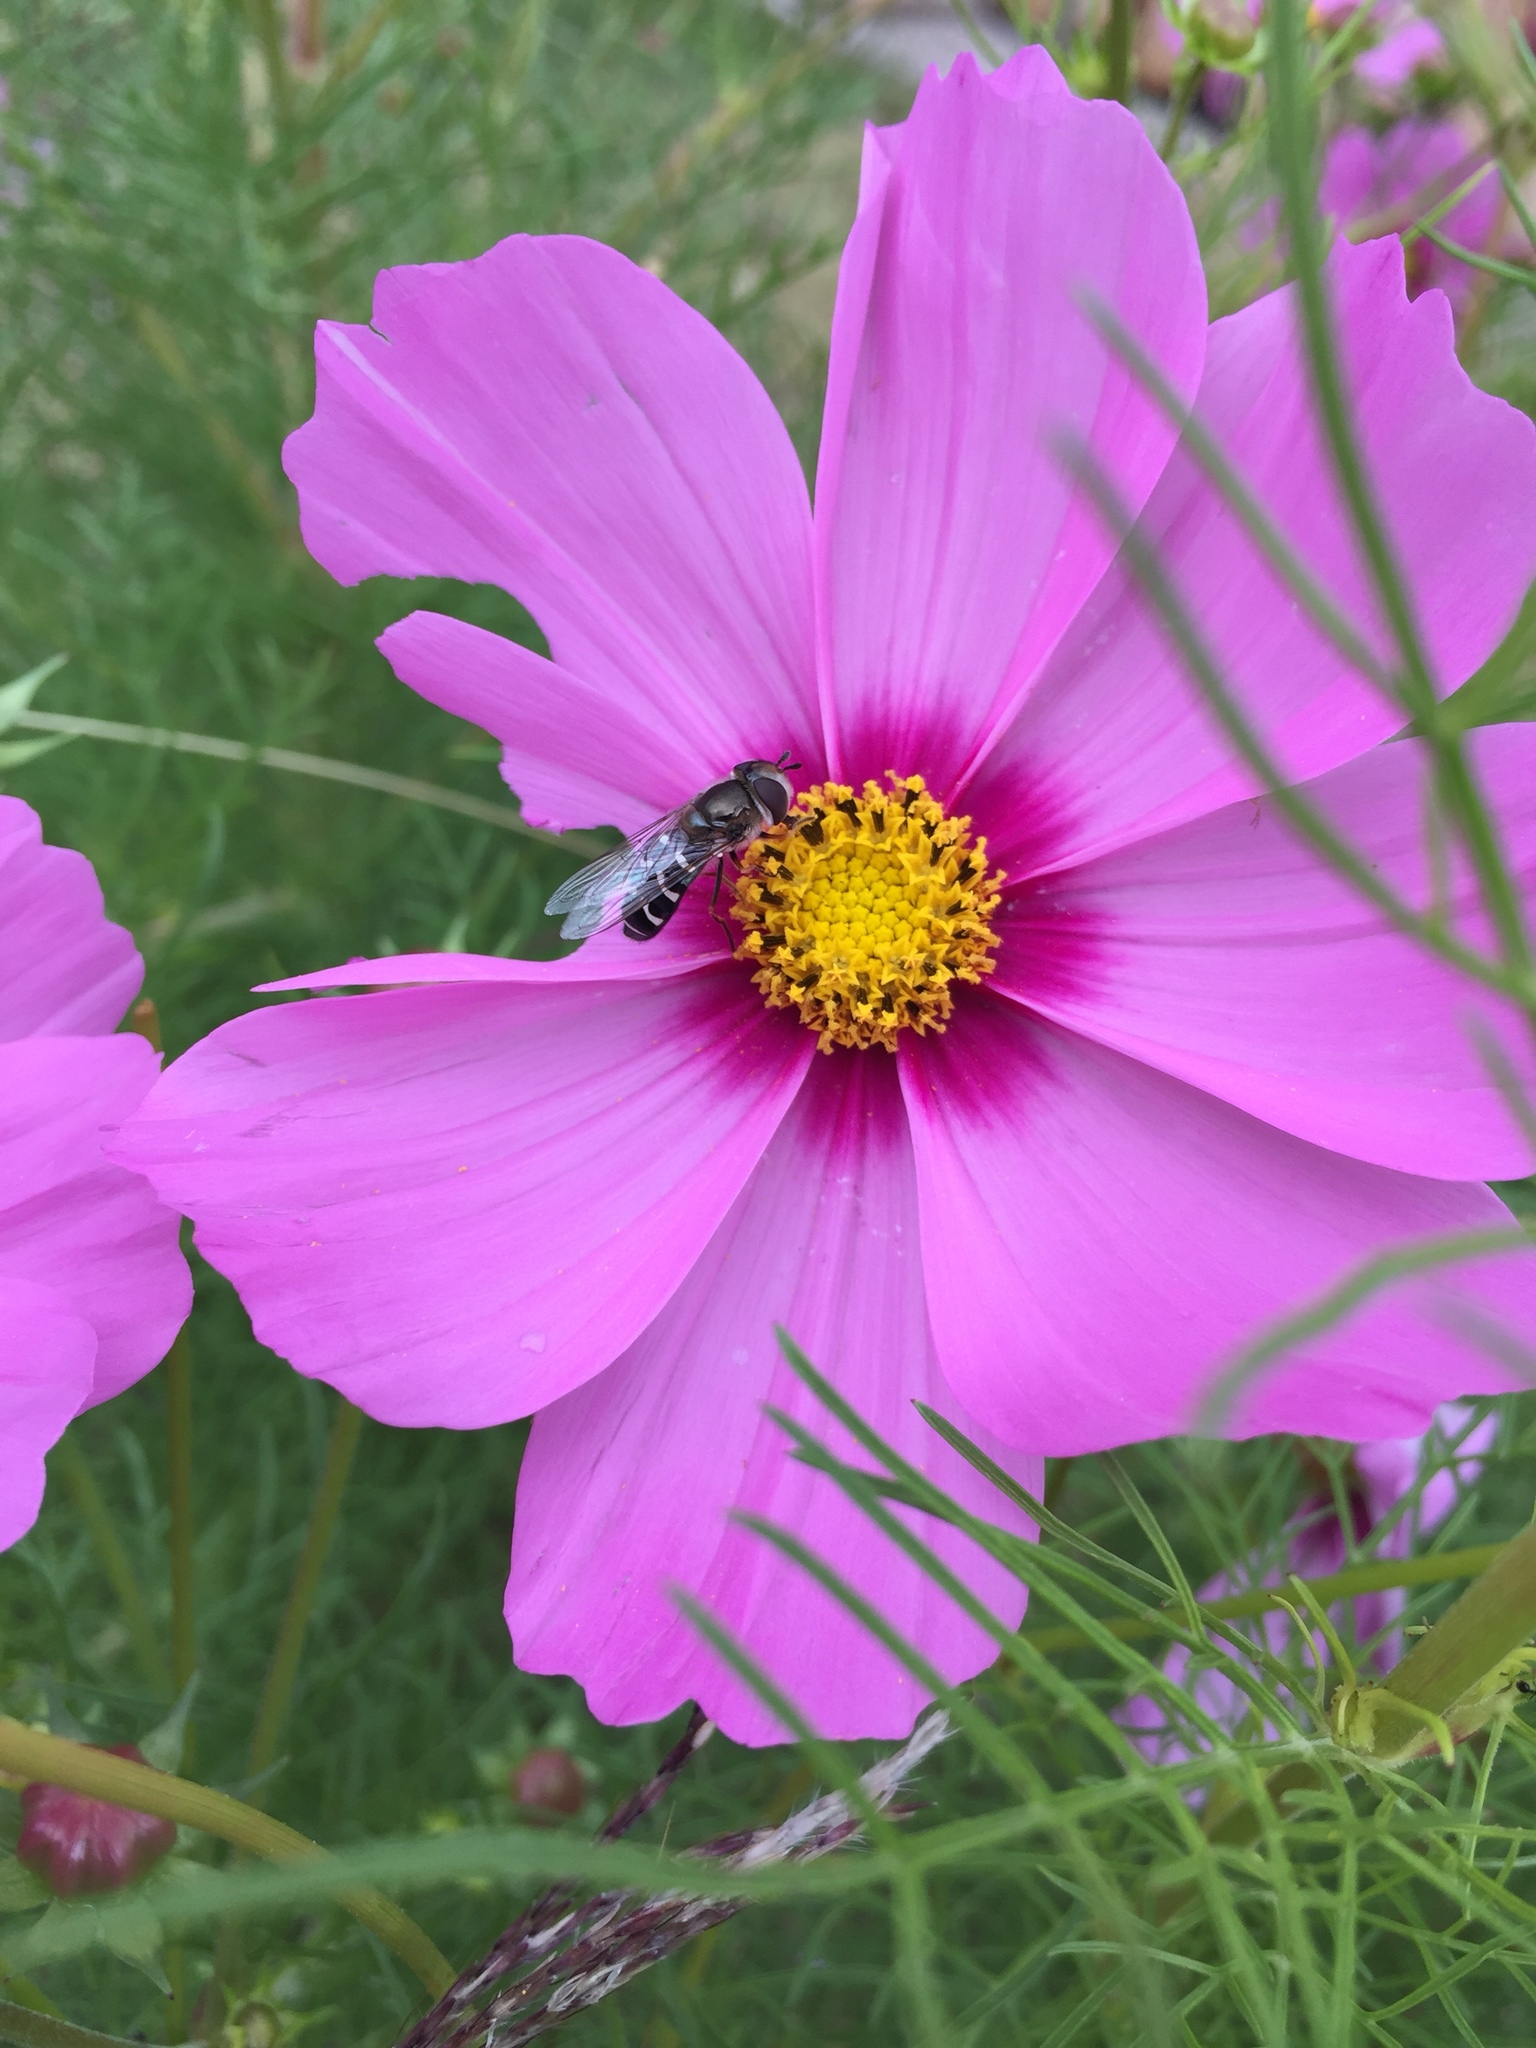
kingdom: Animalia
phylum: Arthropoda
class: Insecta
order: Diptera
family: Syrphidae
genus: Scaeva
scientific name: Scaeva affinis
